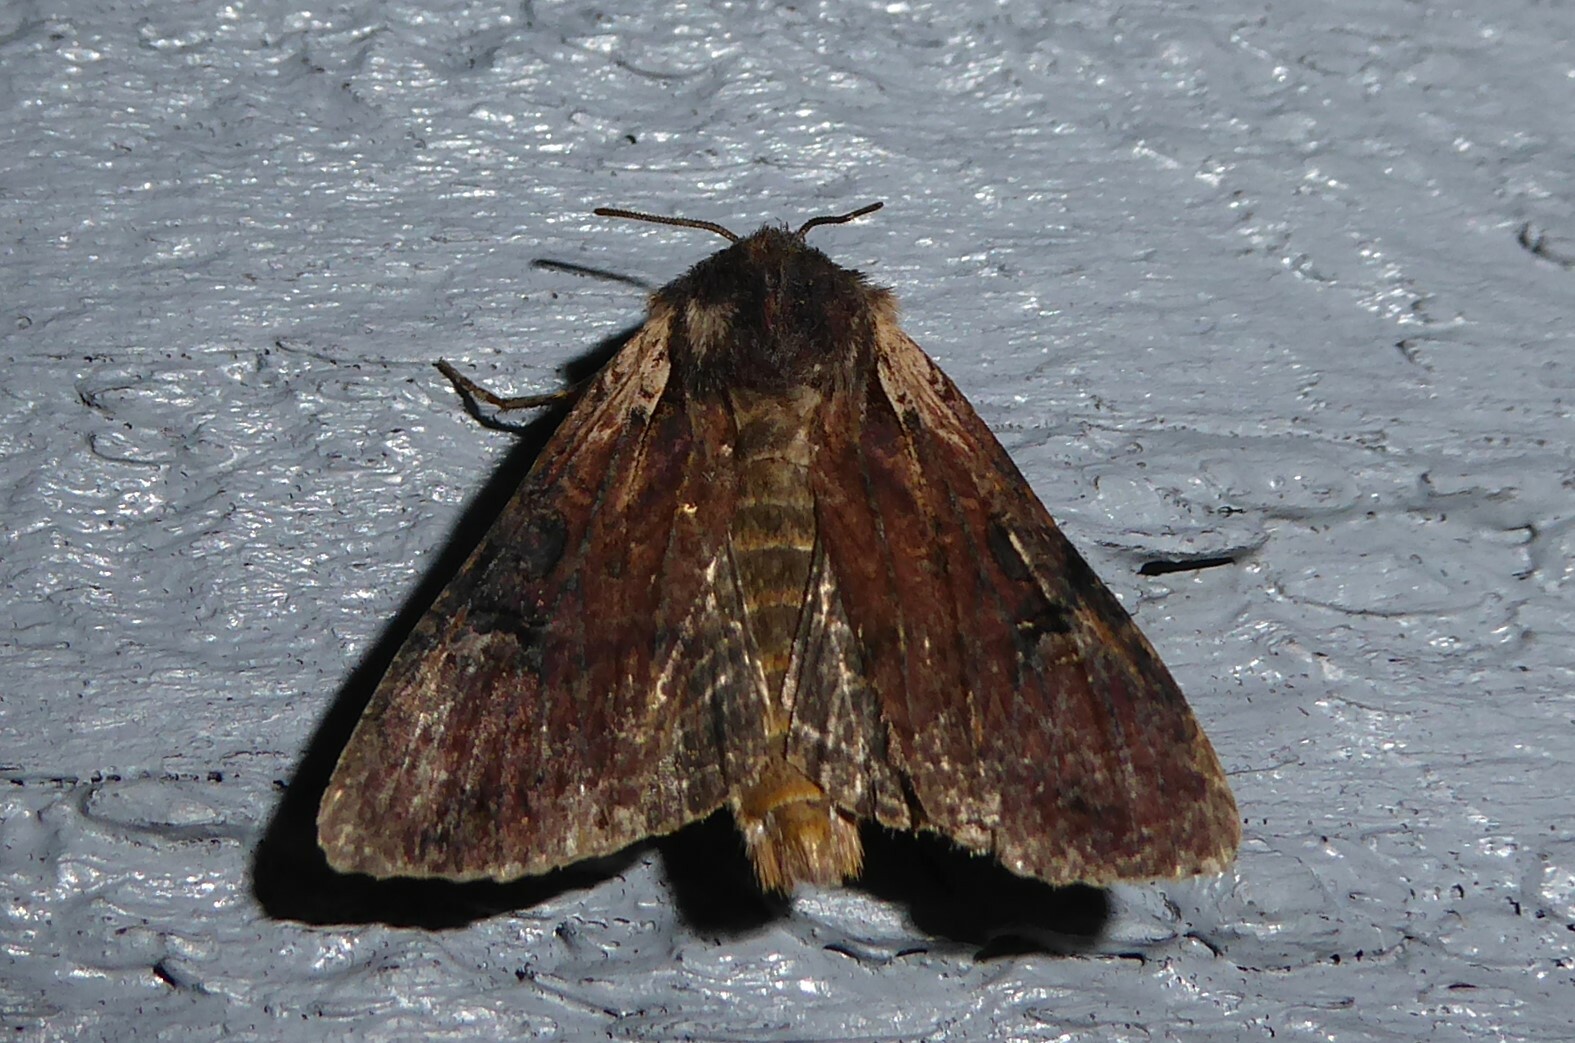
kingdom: Animalia
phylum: Arthropoda
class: Insecta
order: Lepidoptera
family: Noctuidae
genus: Ichneutica
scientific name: Ichneutica omoplaca
